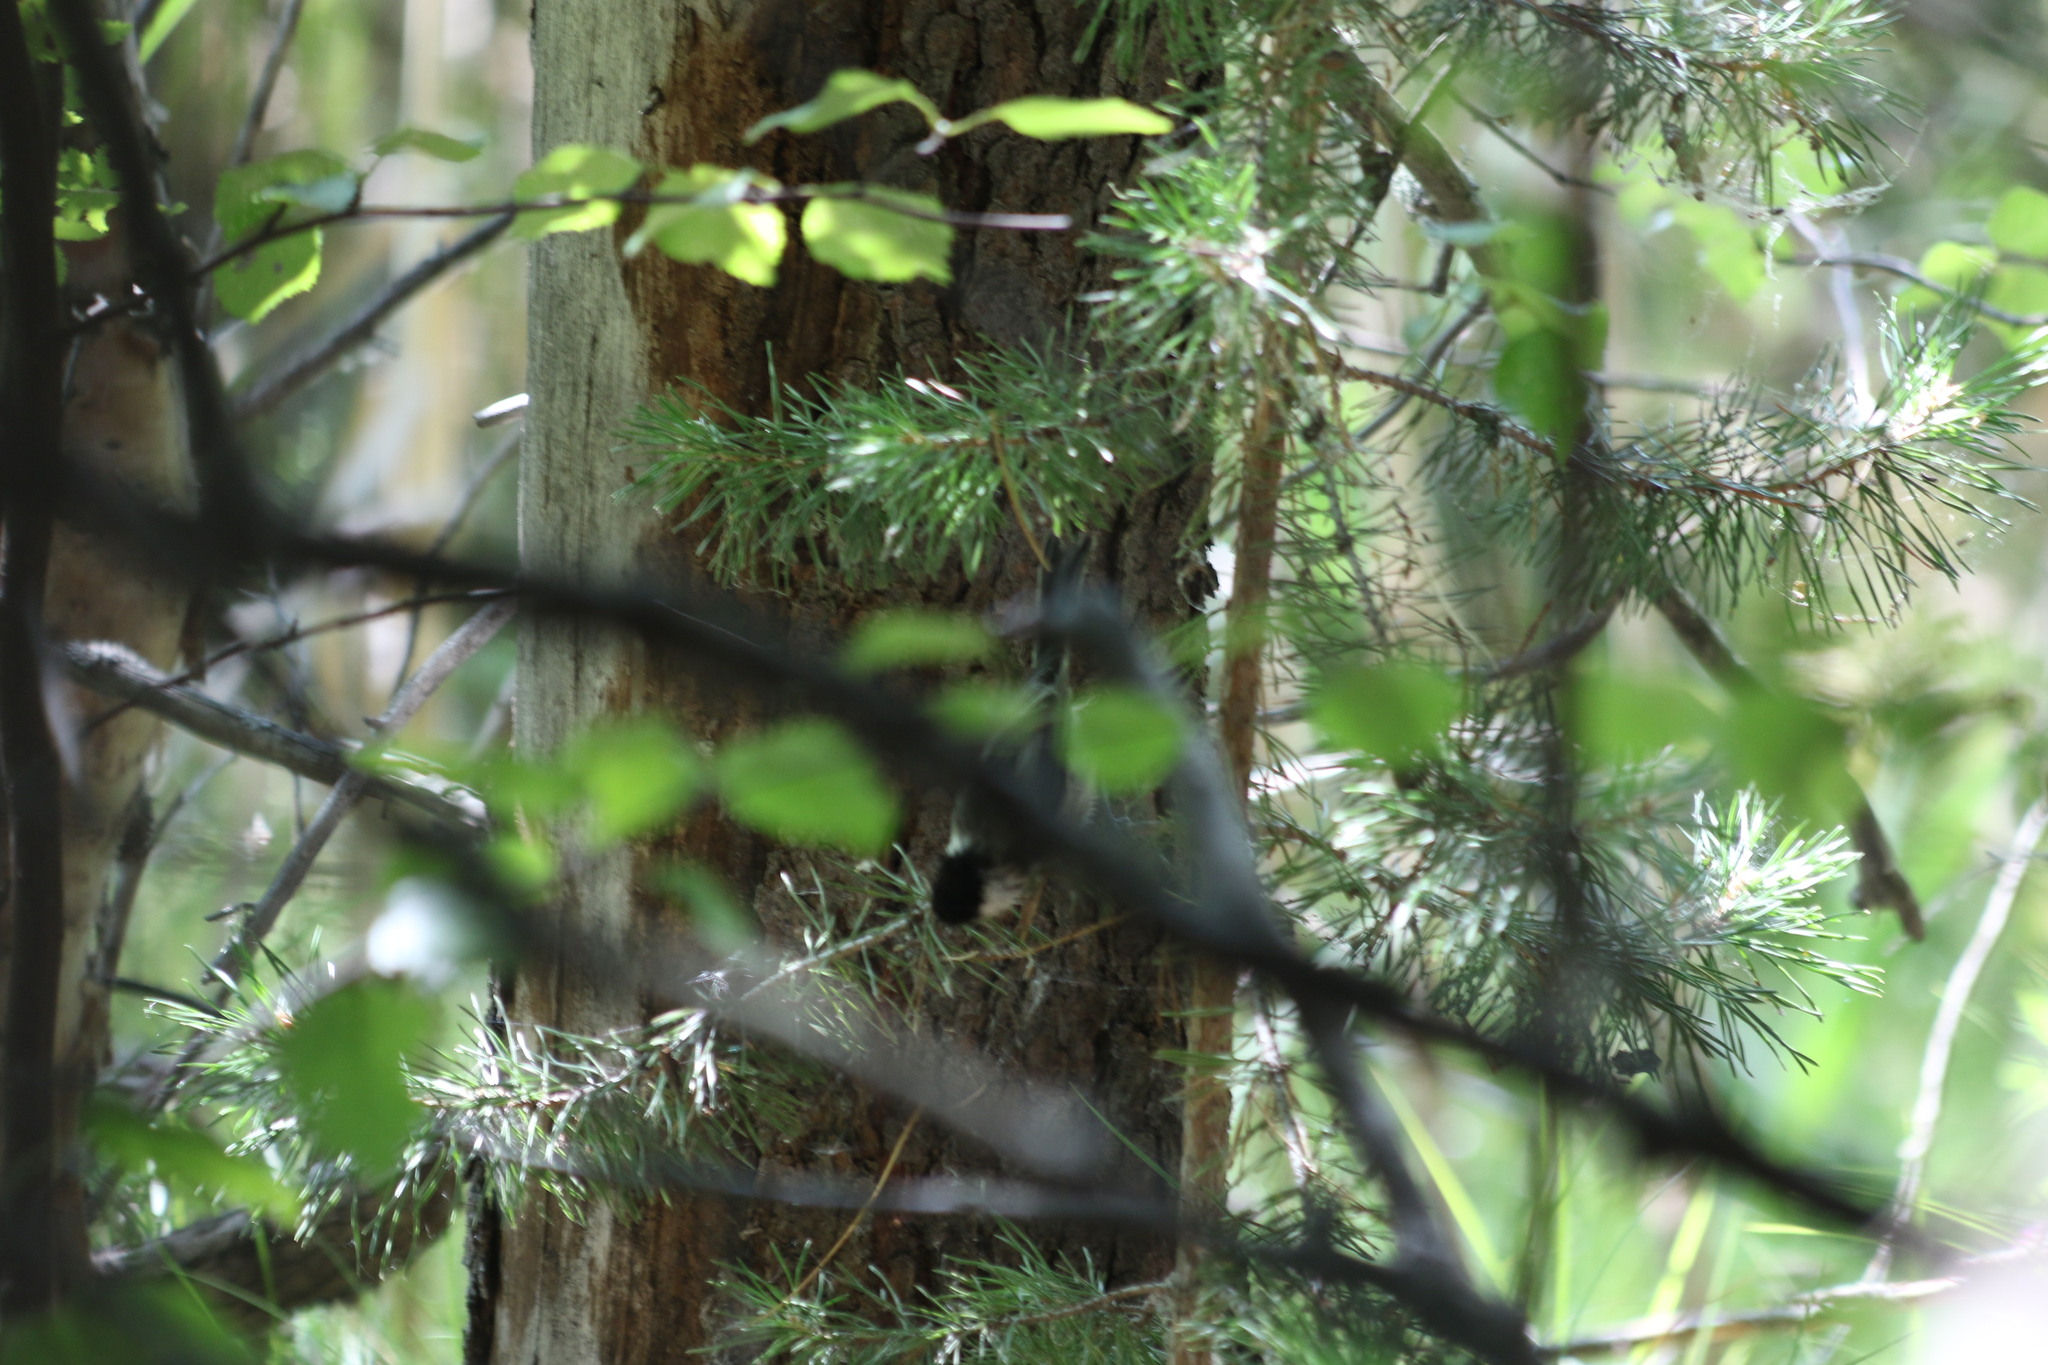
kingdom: Animalia
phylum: Chordata
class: Aves
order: Passeriformes
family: Paridae
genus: Poecile
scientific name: Poecile montanus
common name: Willow tit
